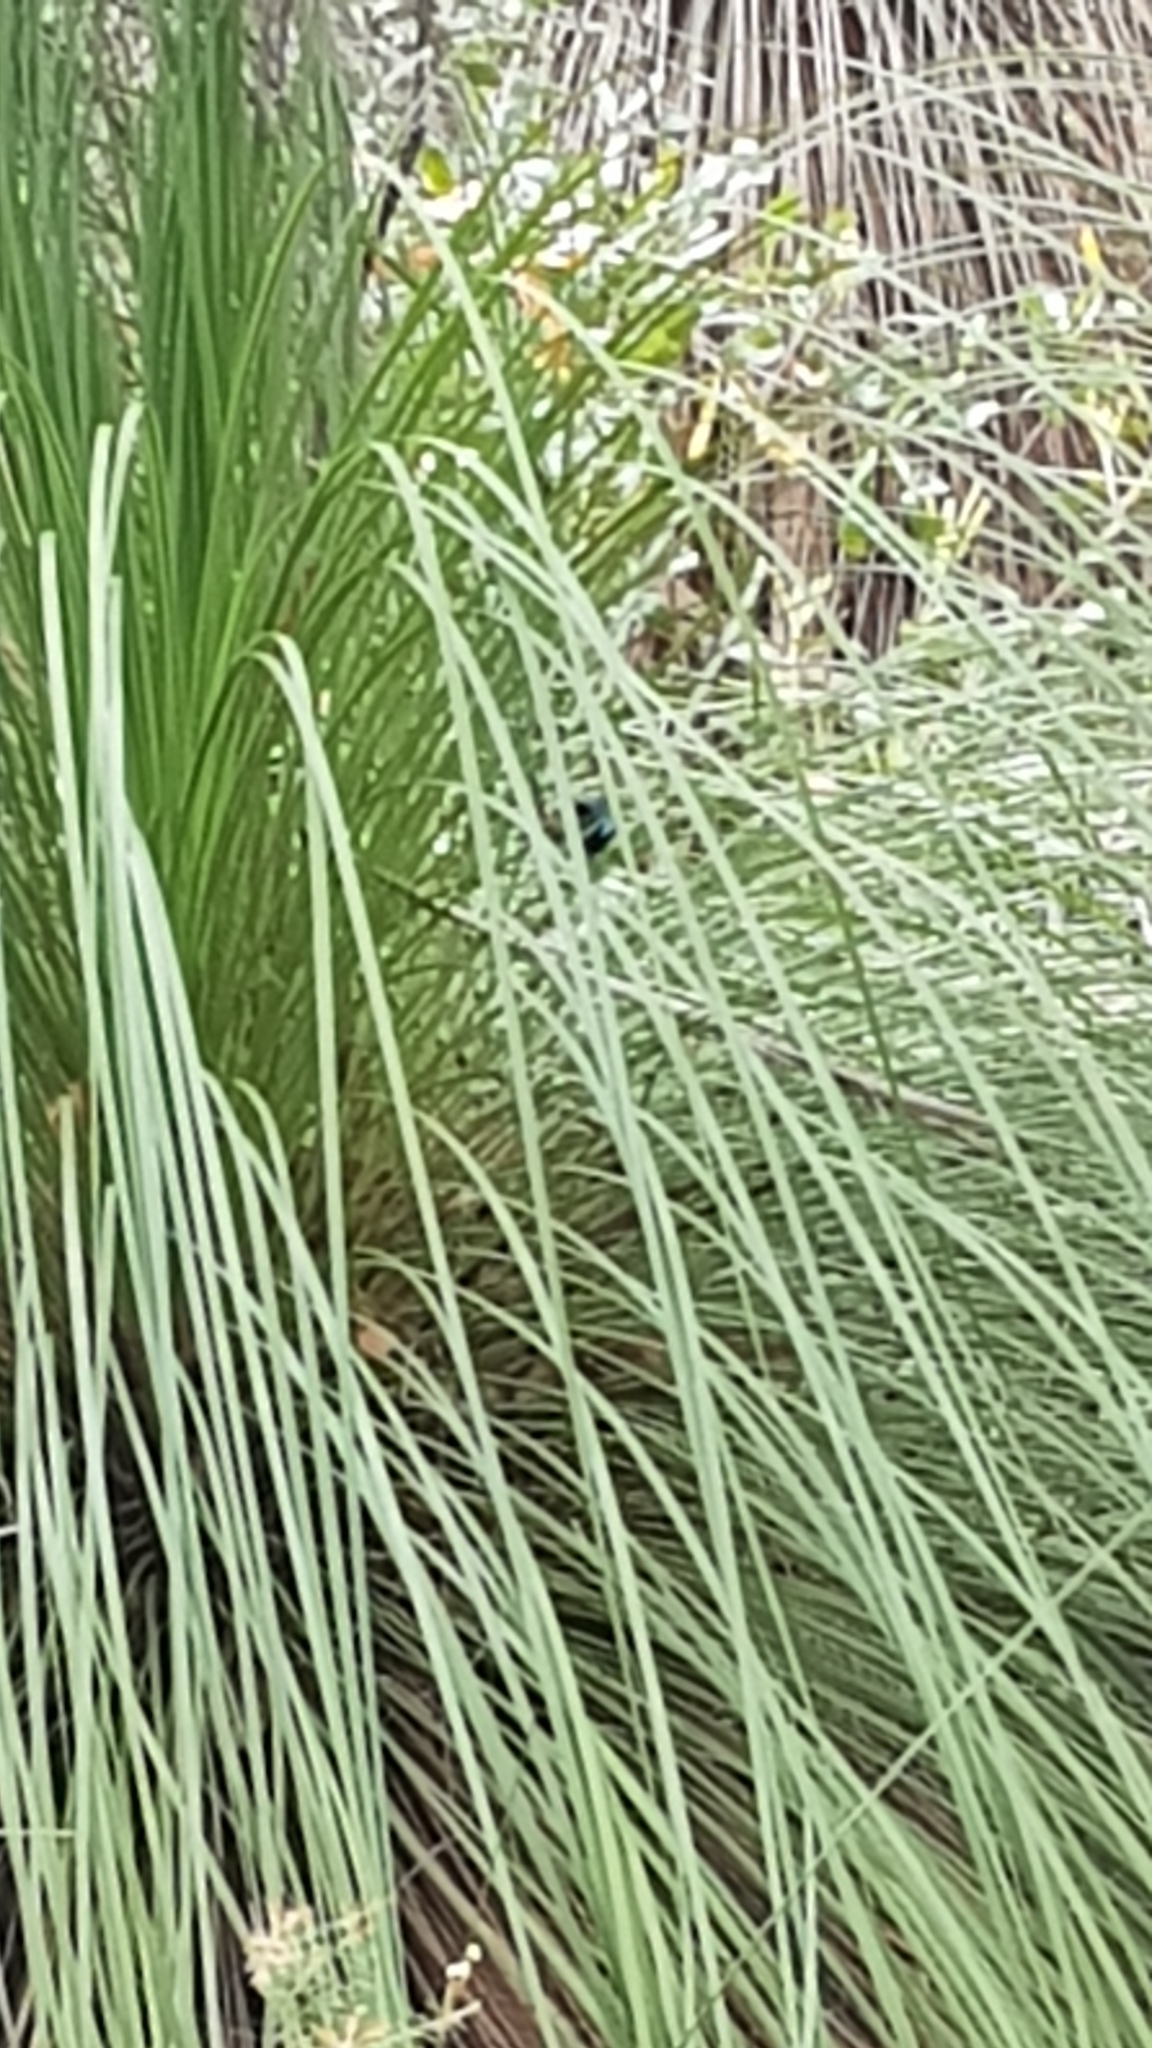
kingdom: Animalia
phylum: Chordata
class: Aves
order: Passeriformes
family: Maluridae
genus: Malurus
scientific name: Malurus cyaneus
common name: Superb fairywren
